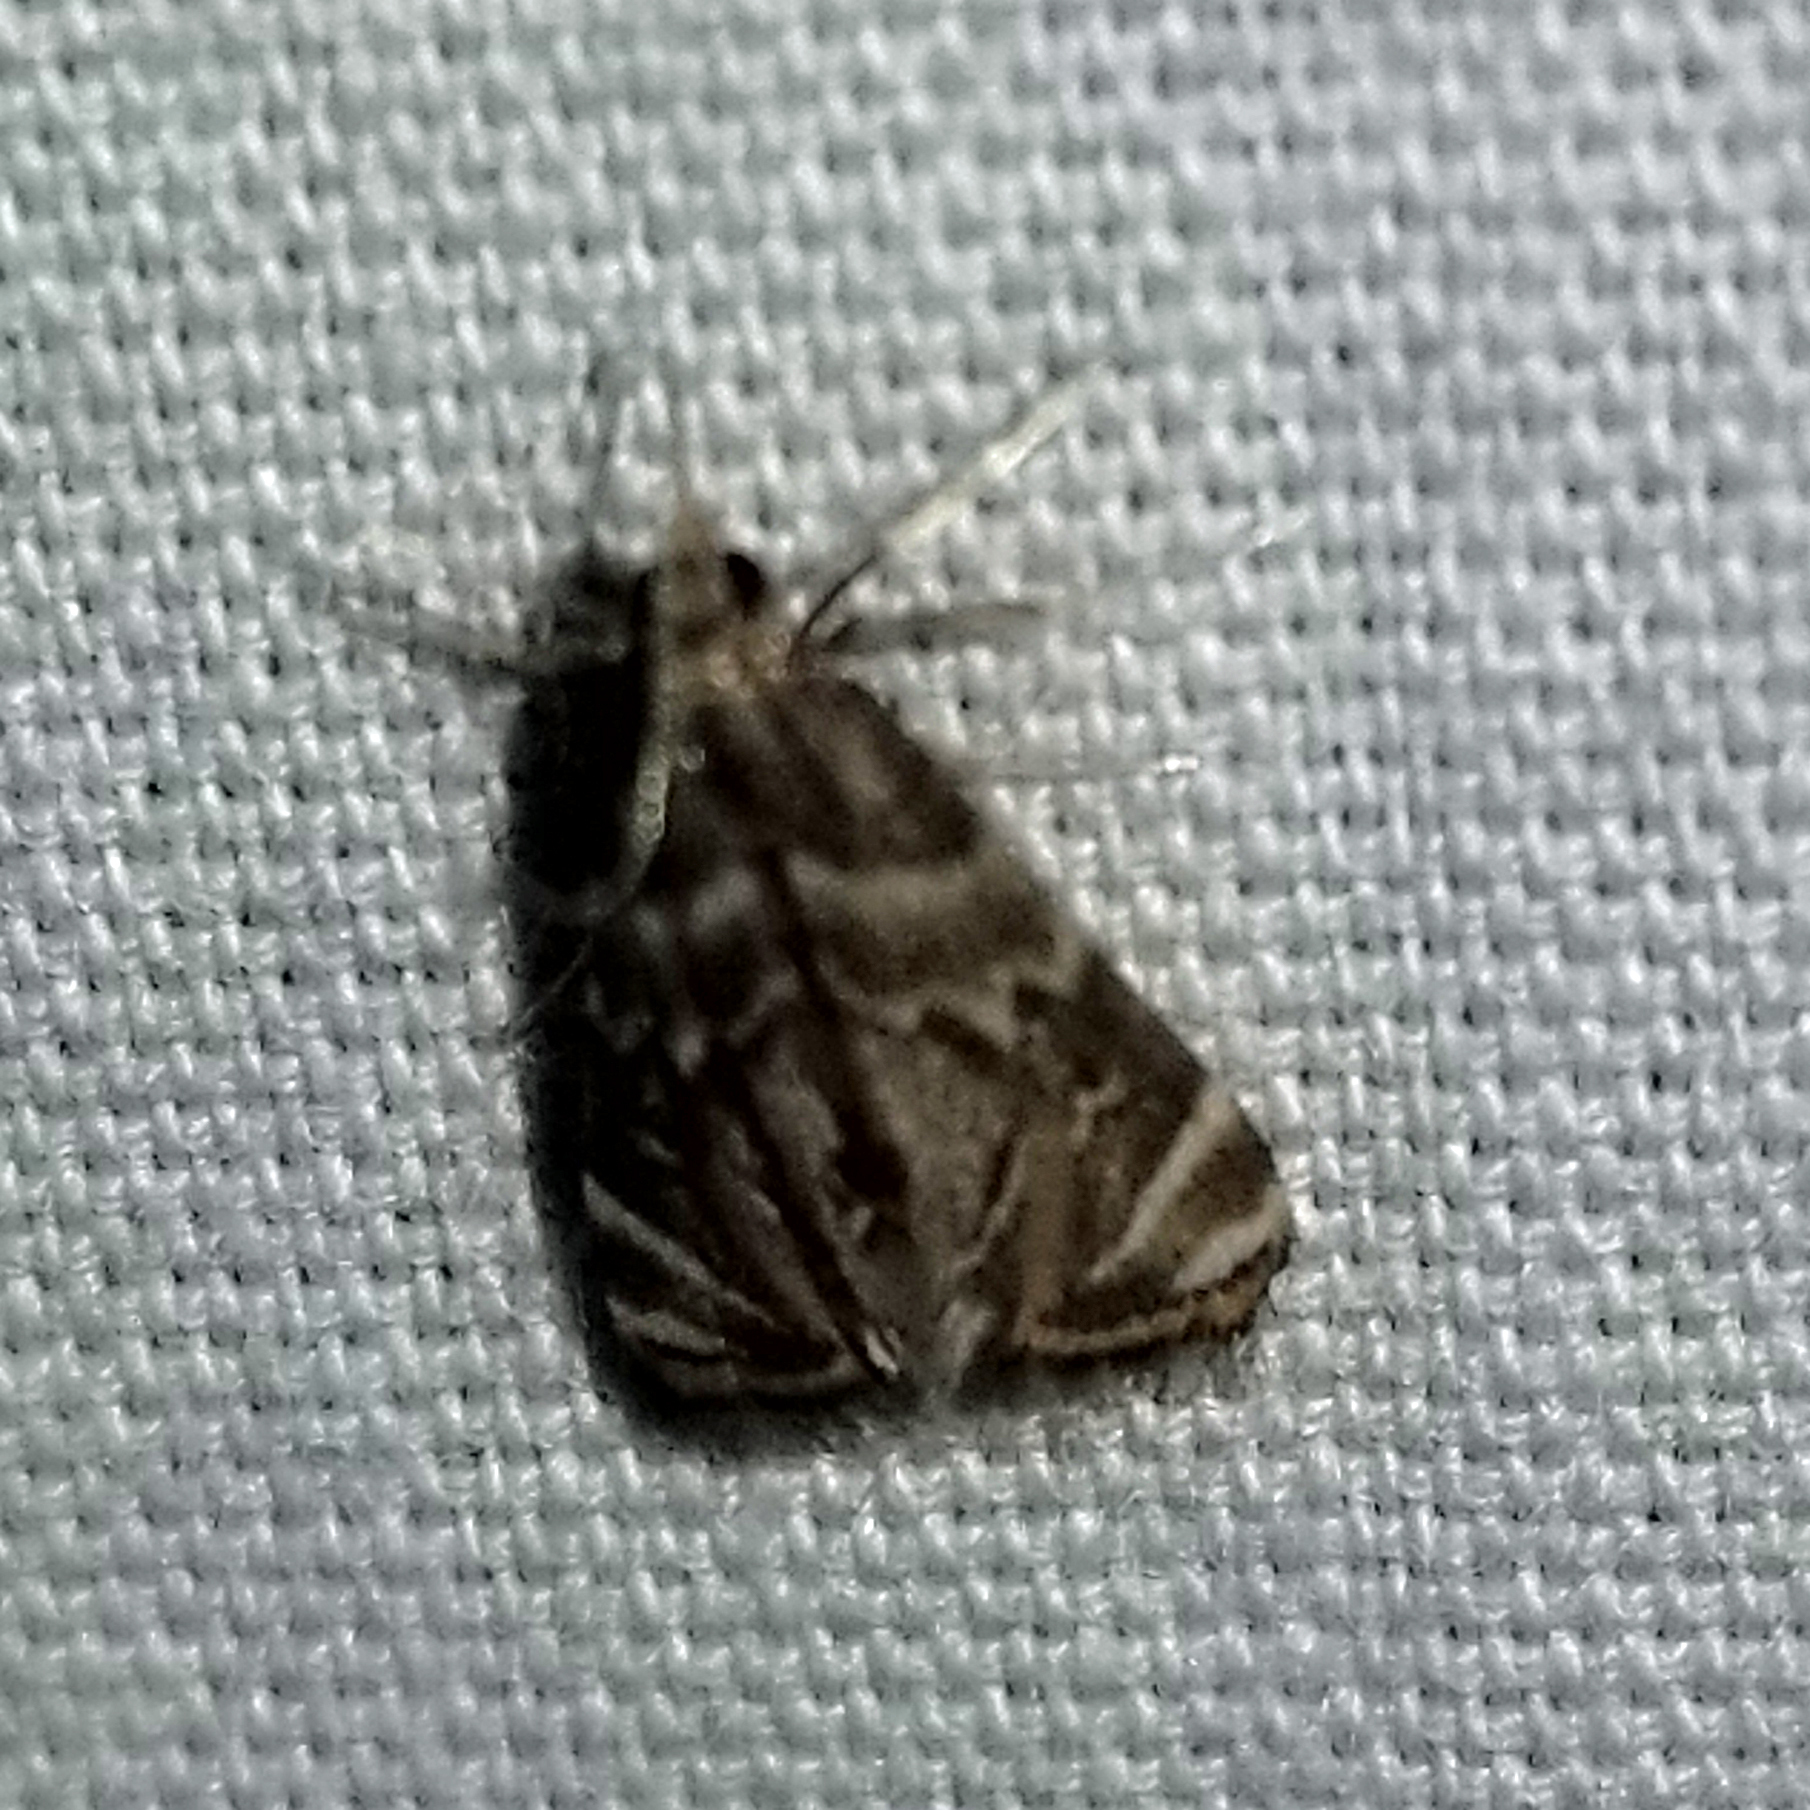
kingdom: Animalia
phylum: Arthropoda
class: Insecta
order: Lepidoptera
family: Crambidae
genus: Petrophila
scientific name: Petrophila hodgesi
